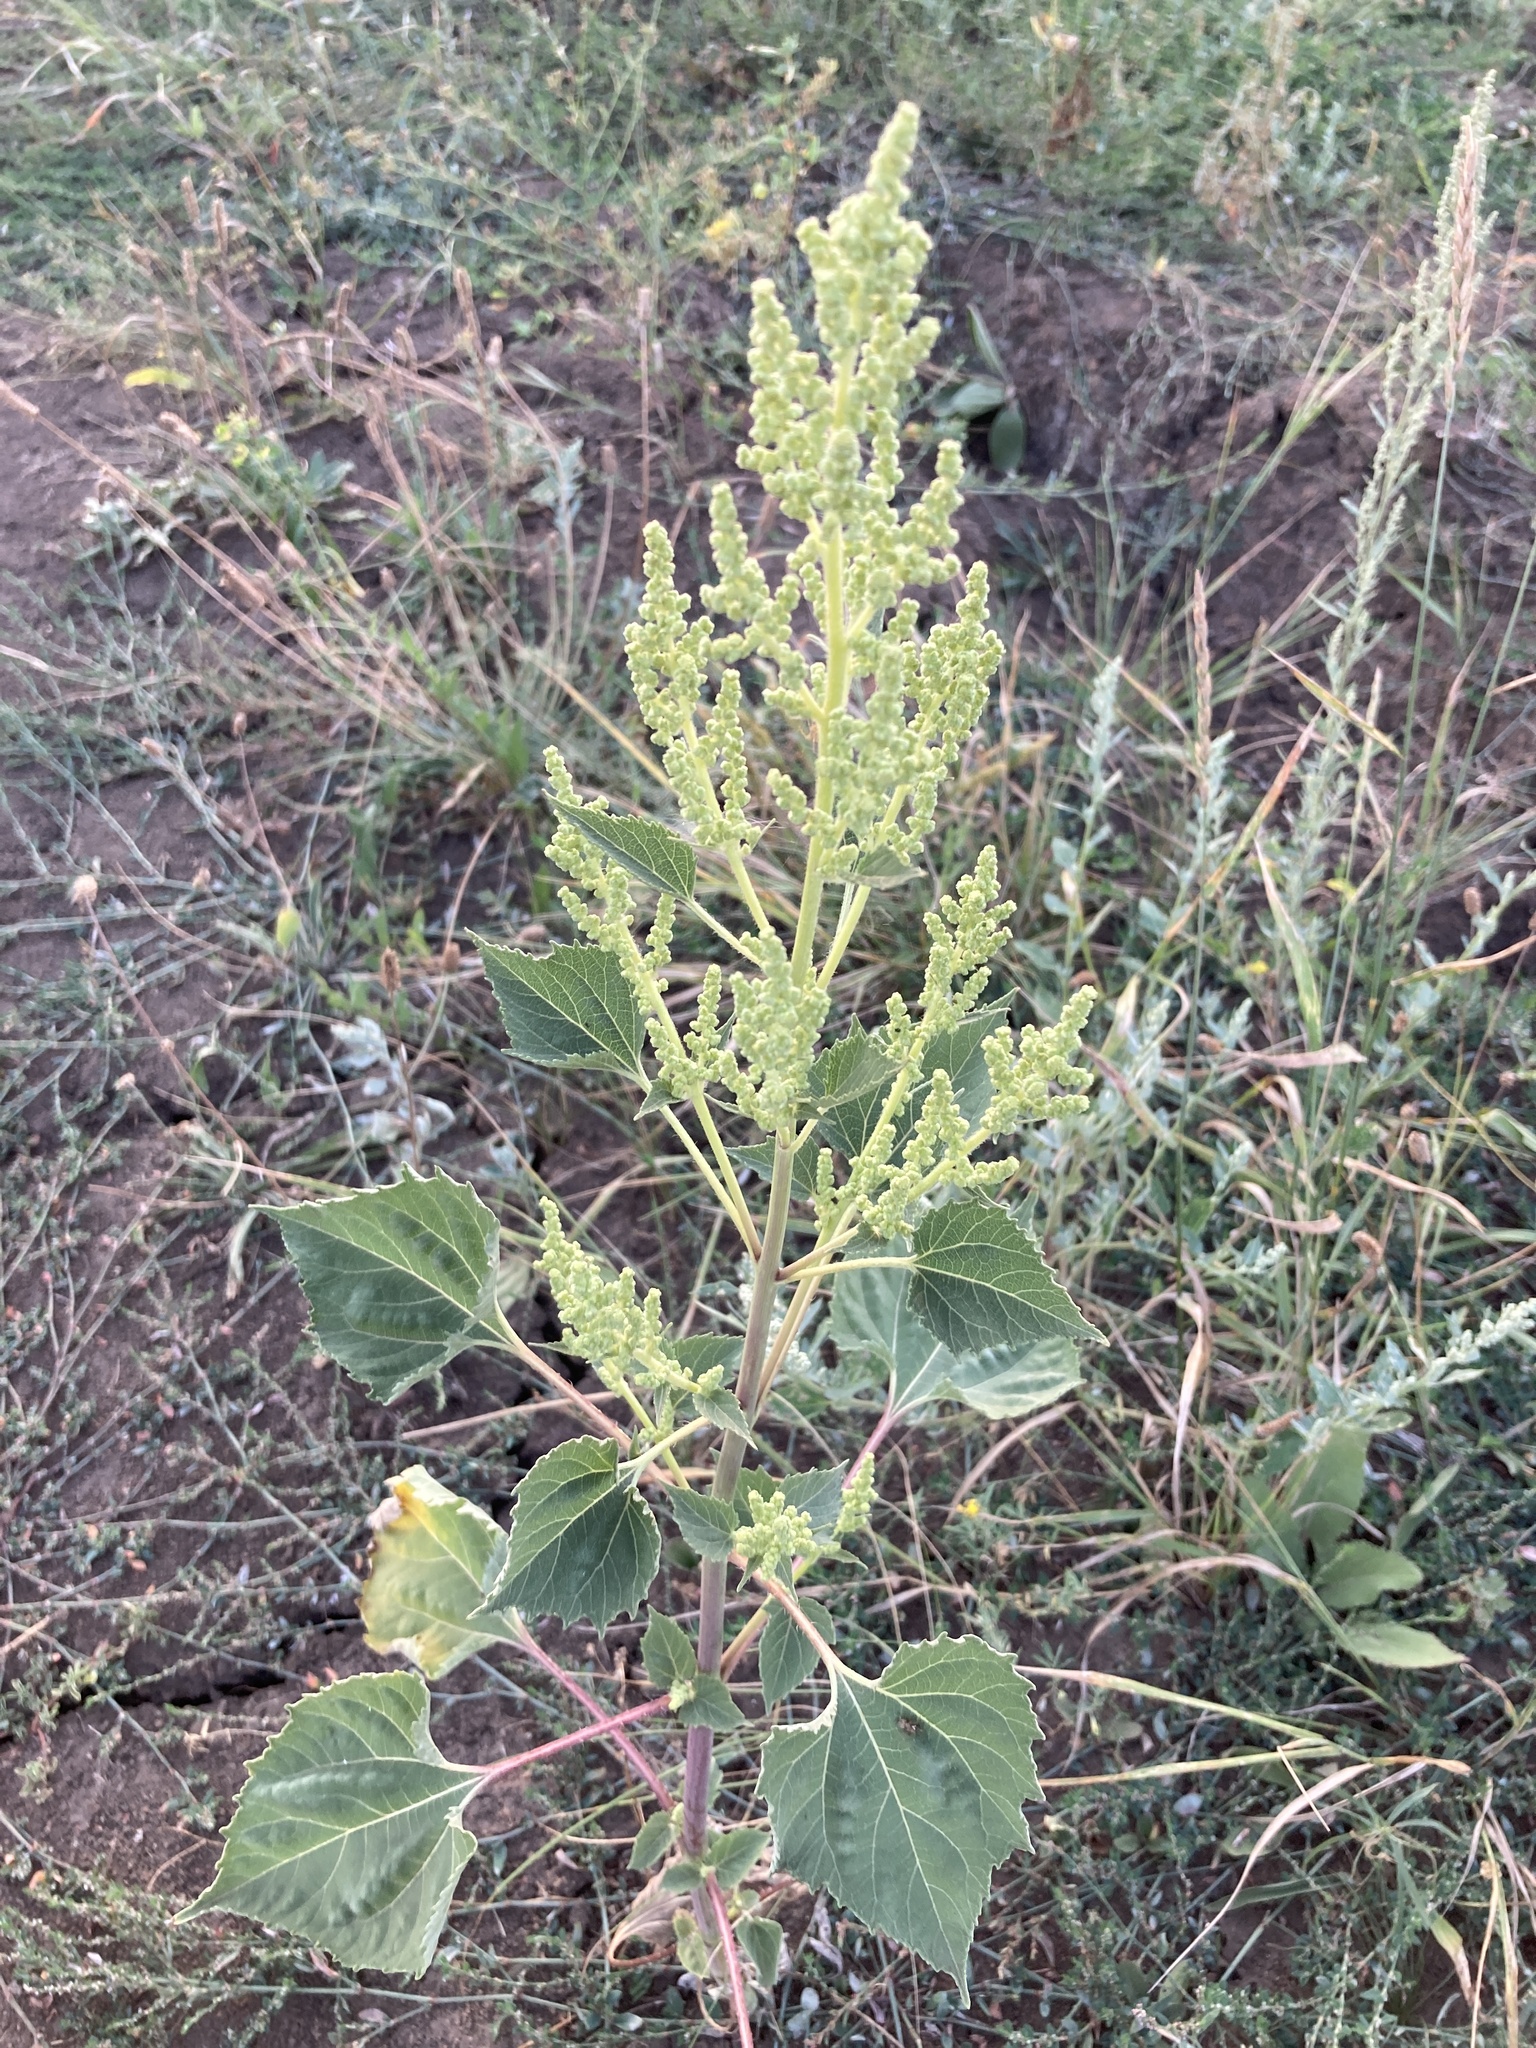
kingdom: Plantae
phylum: Tracheophyta
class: Magnoliopsida
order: Asterales
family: Asteraceae
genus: Cyclachaena
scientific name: Cyclachaena xanthiifolia
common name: Giant sumpweed
